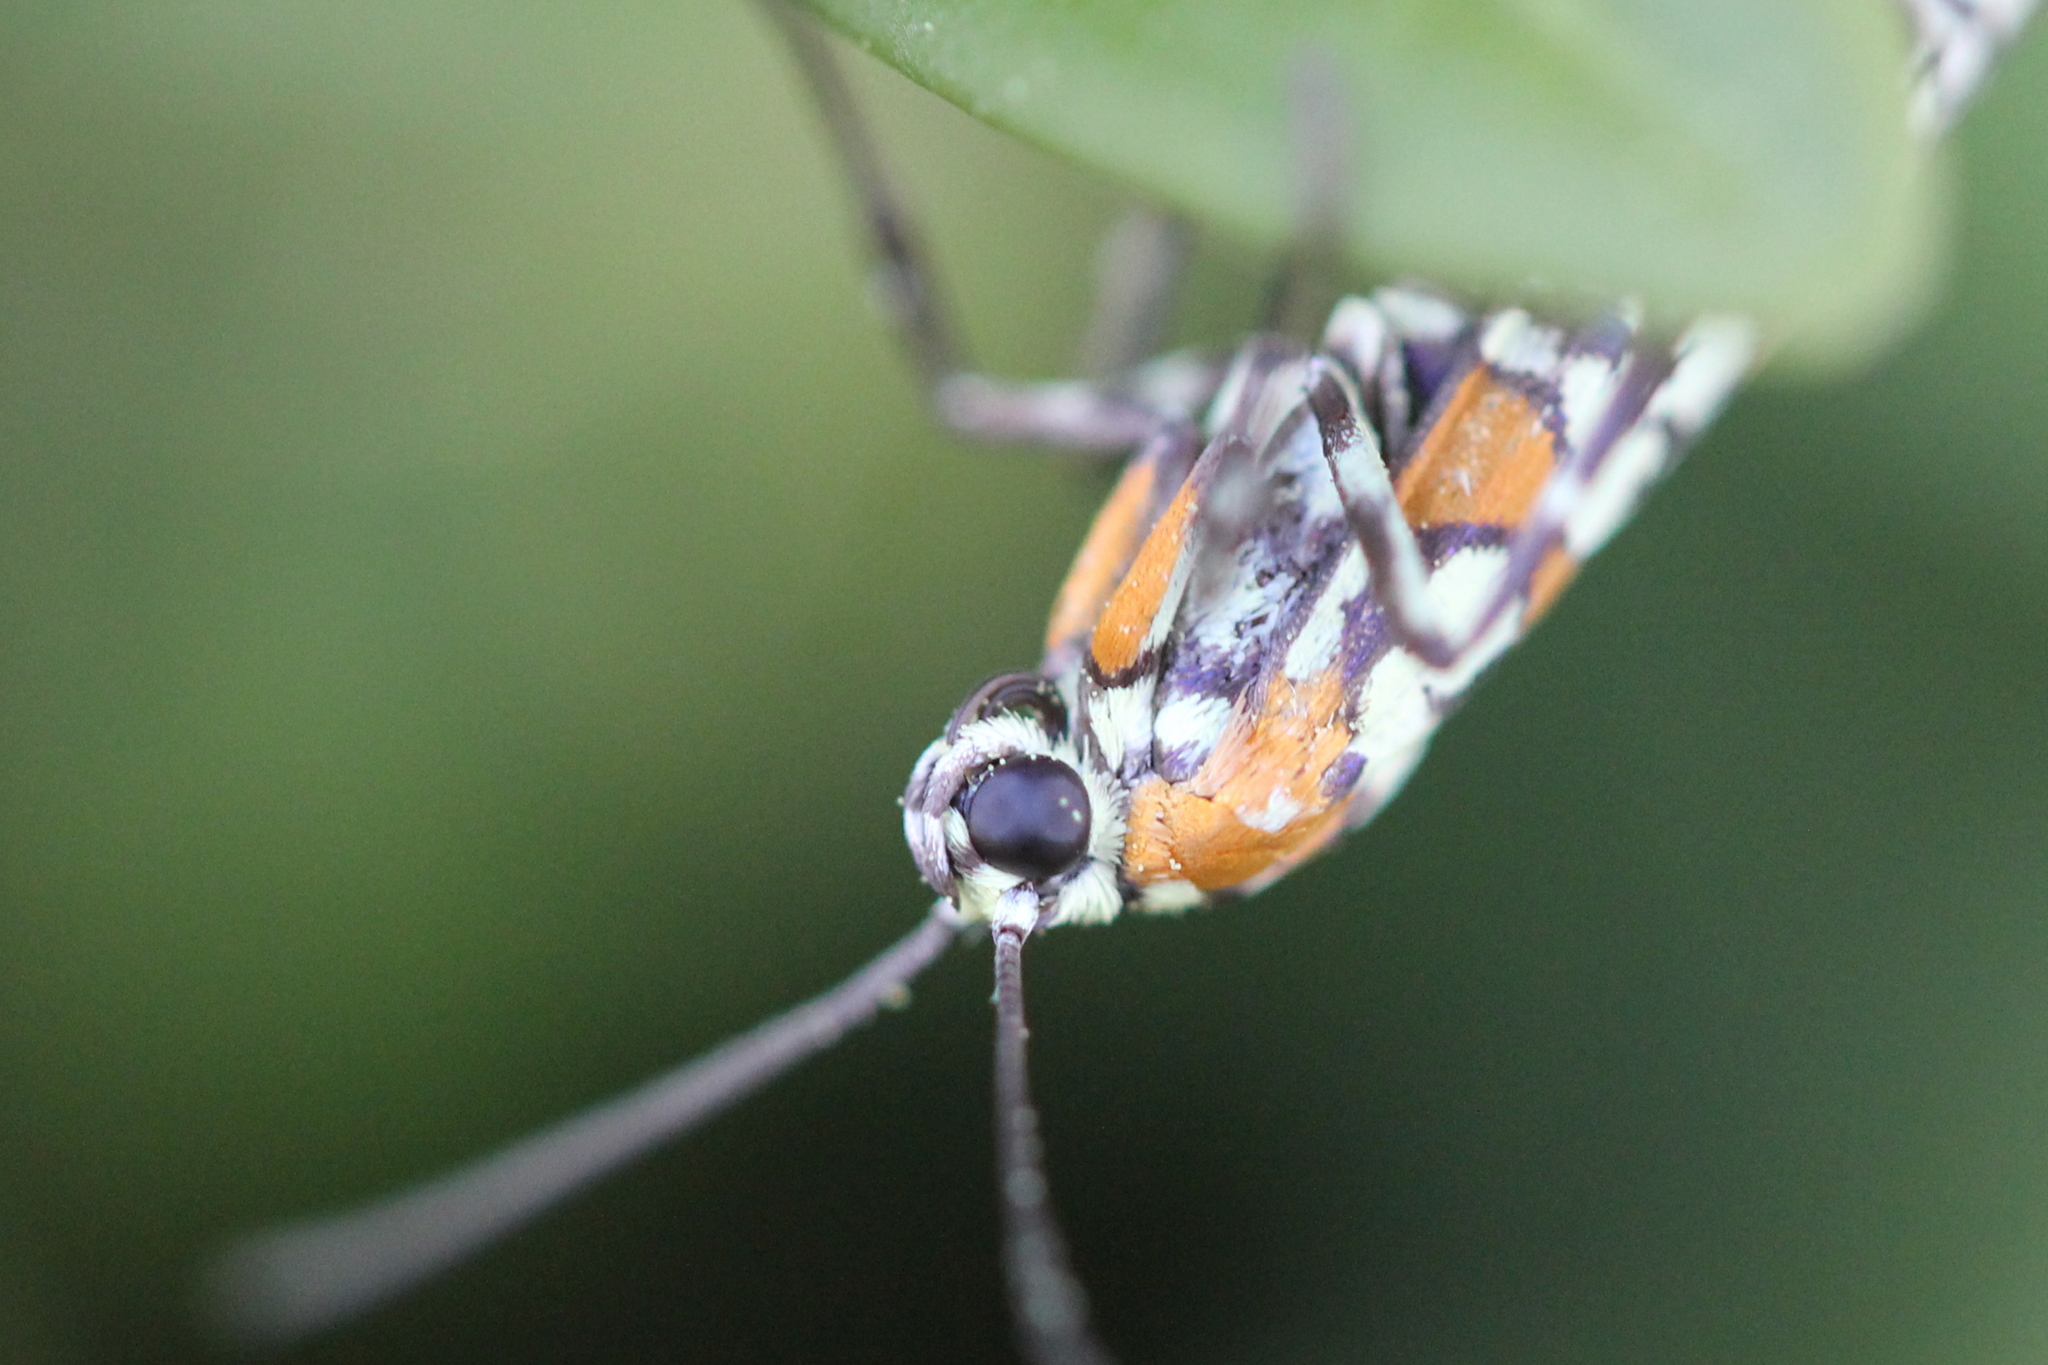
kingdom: Animalia
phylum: Arthropoda
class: Insecta
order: Lepidoptera
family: Attevidae
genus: Atteva
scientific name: Atteva punctella
